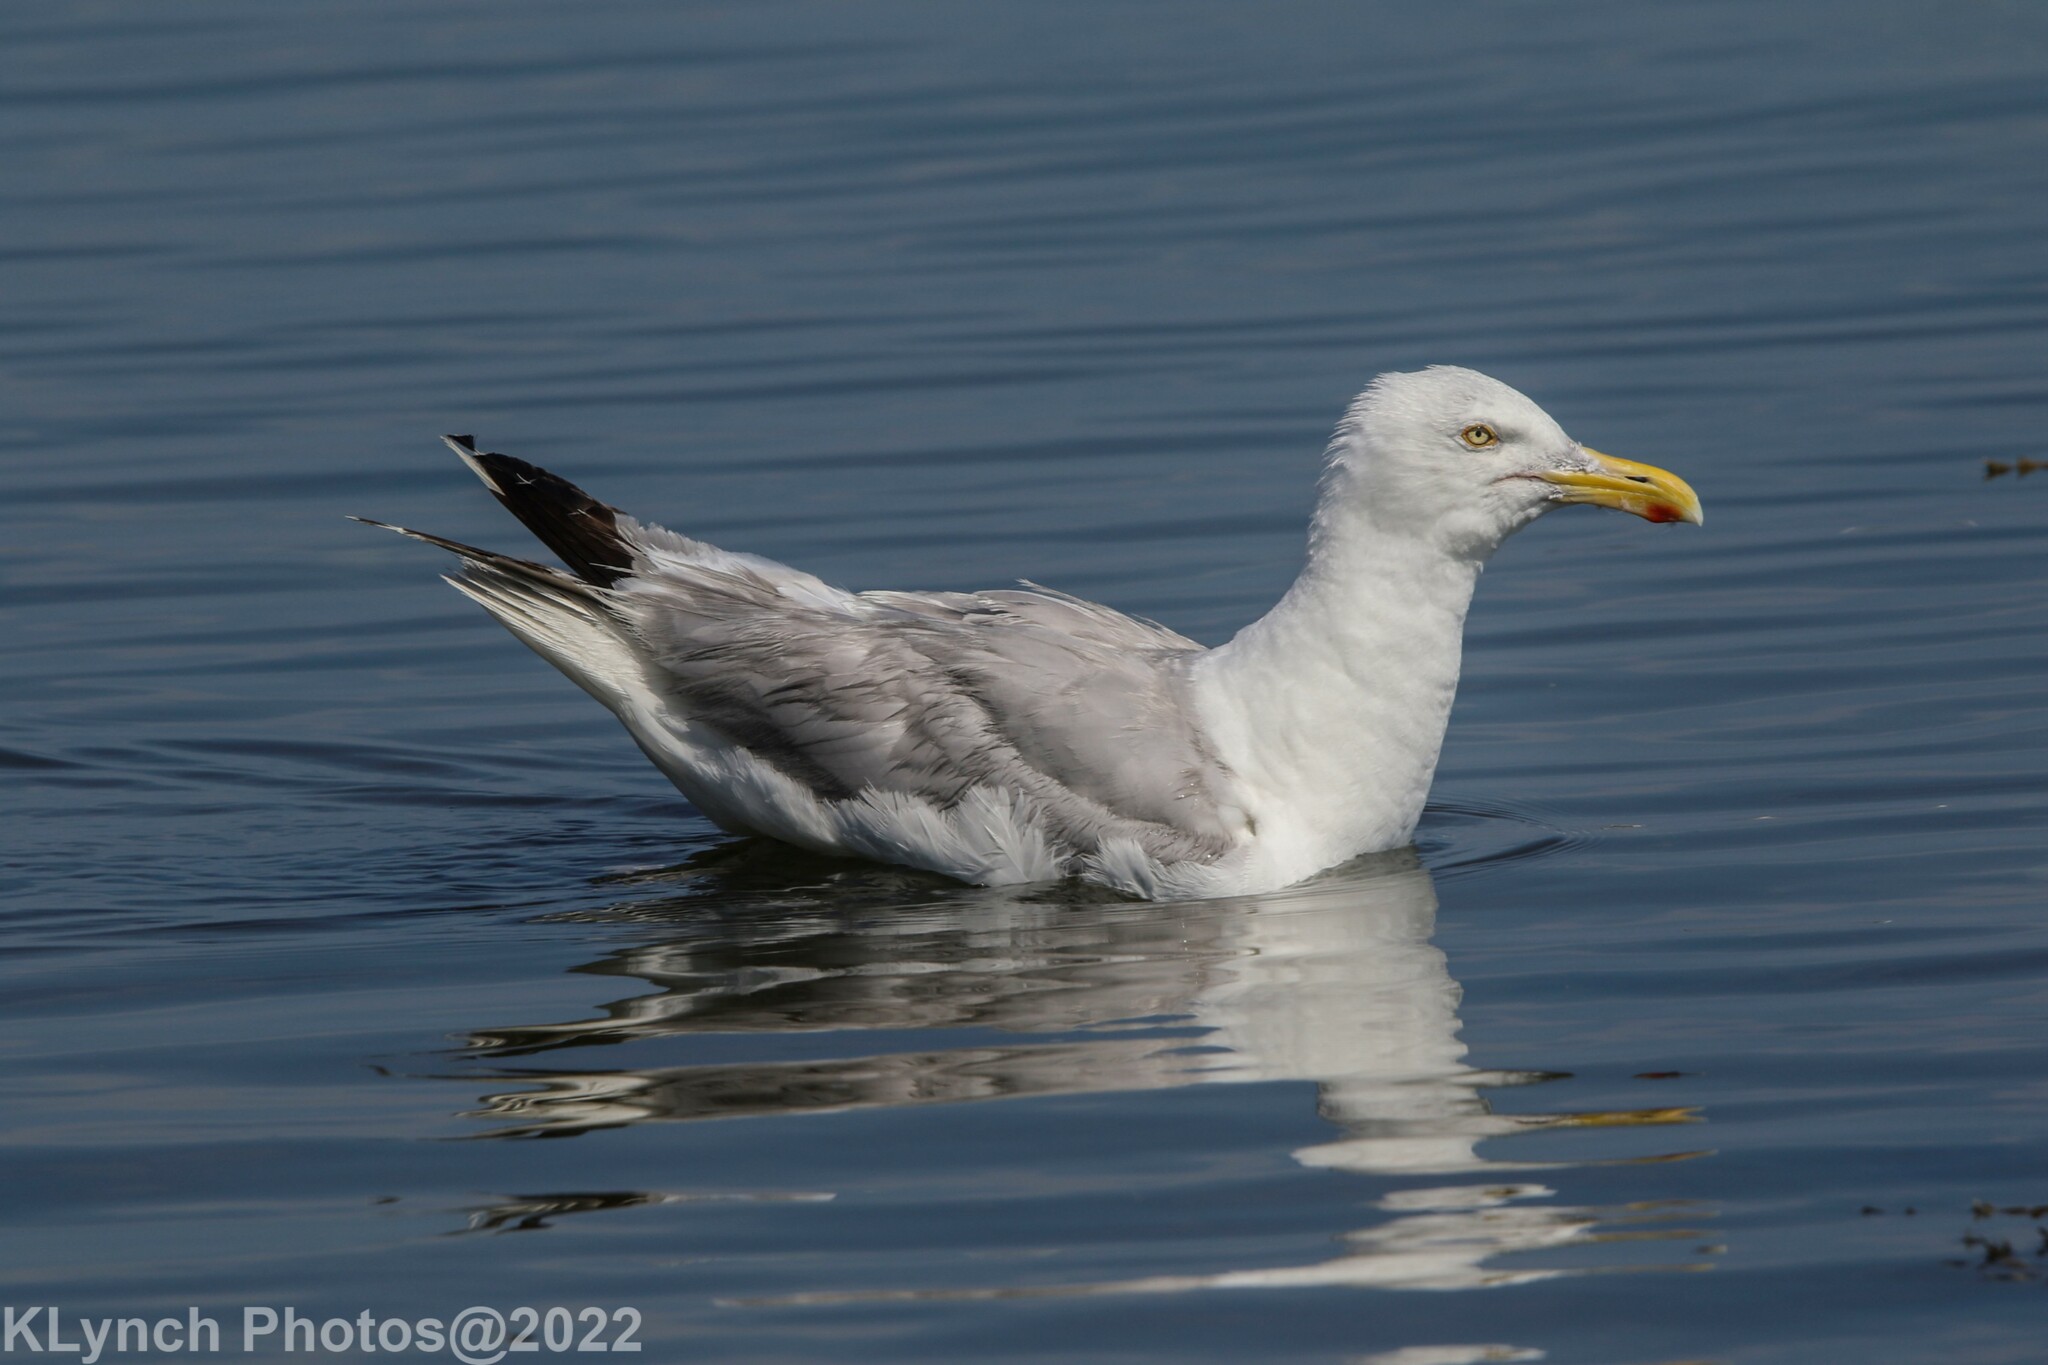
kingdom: Animalia
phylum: Chordata
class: Aves
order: Charadriiformes
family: Laridae
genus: Larus
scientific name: Larus argentatus
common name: Herring gull
